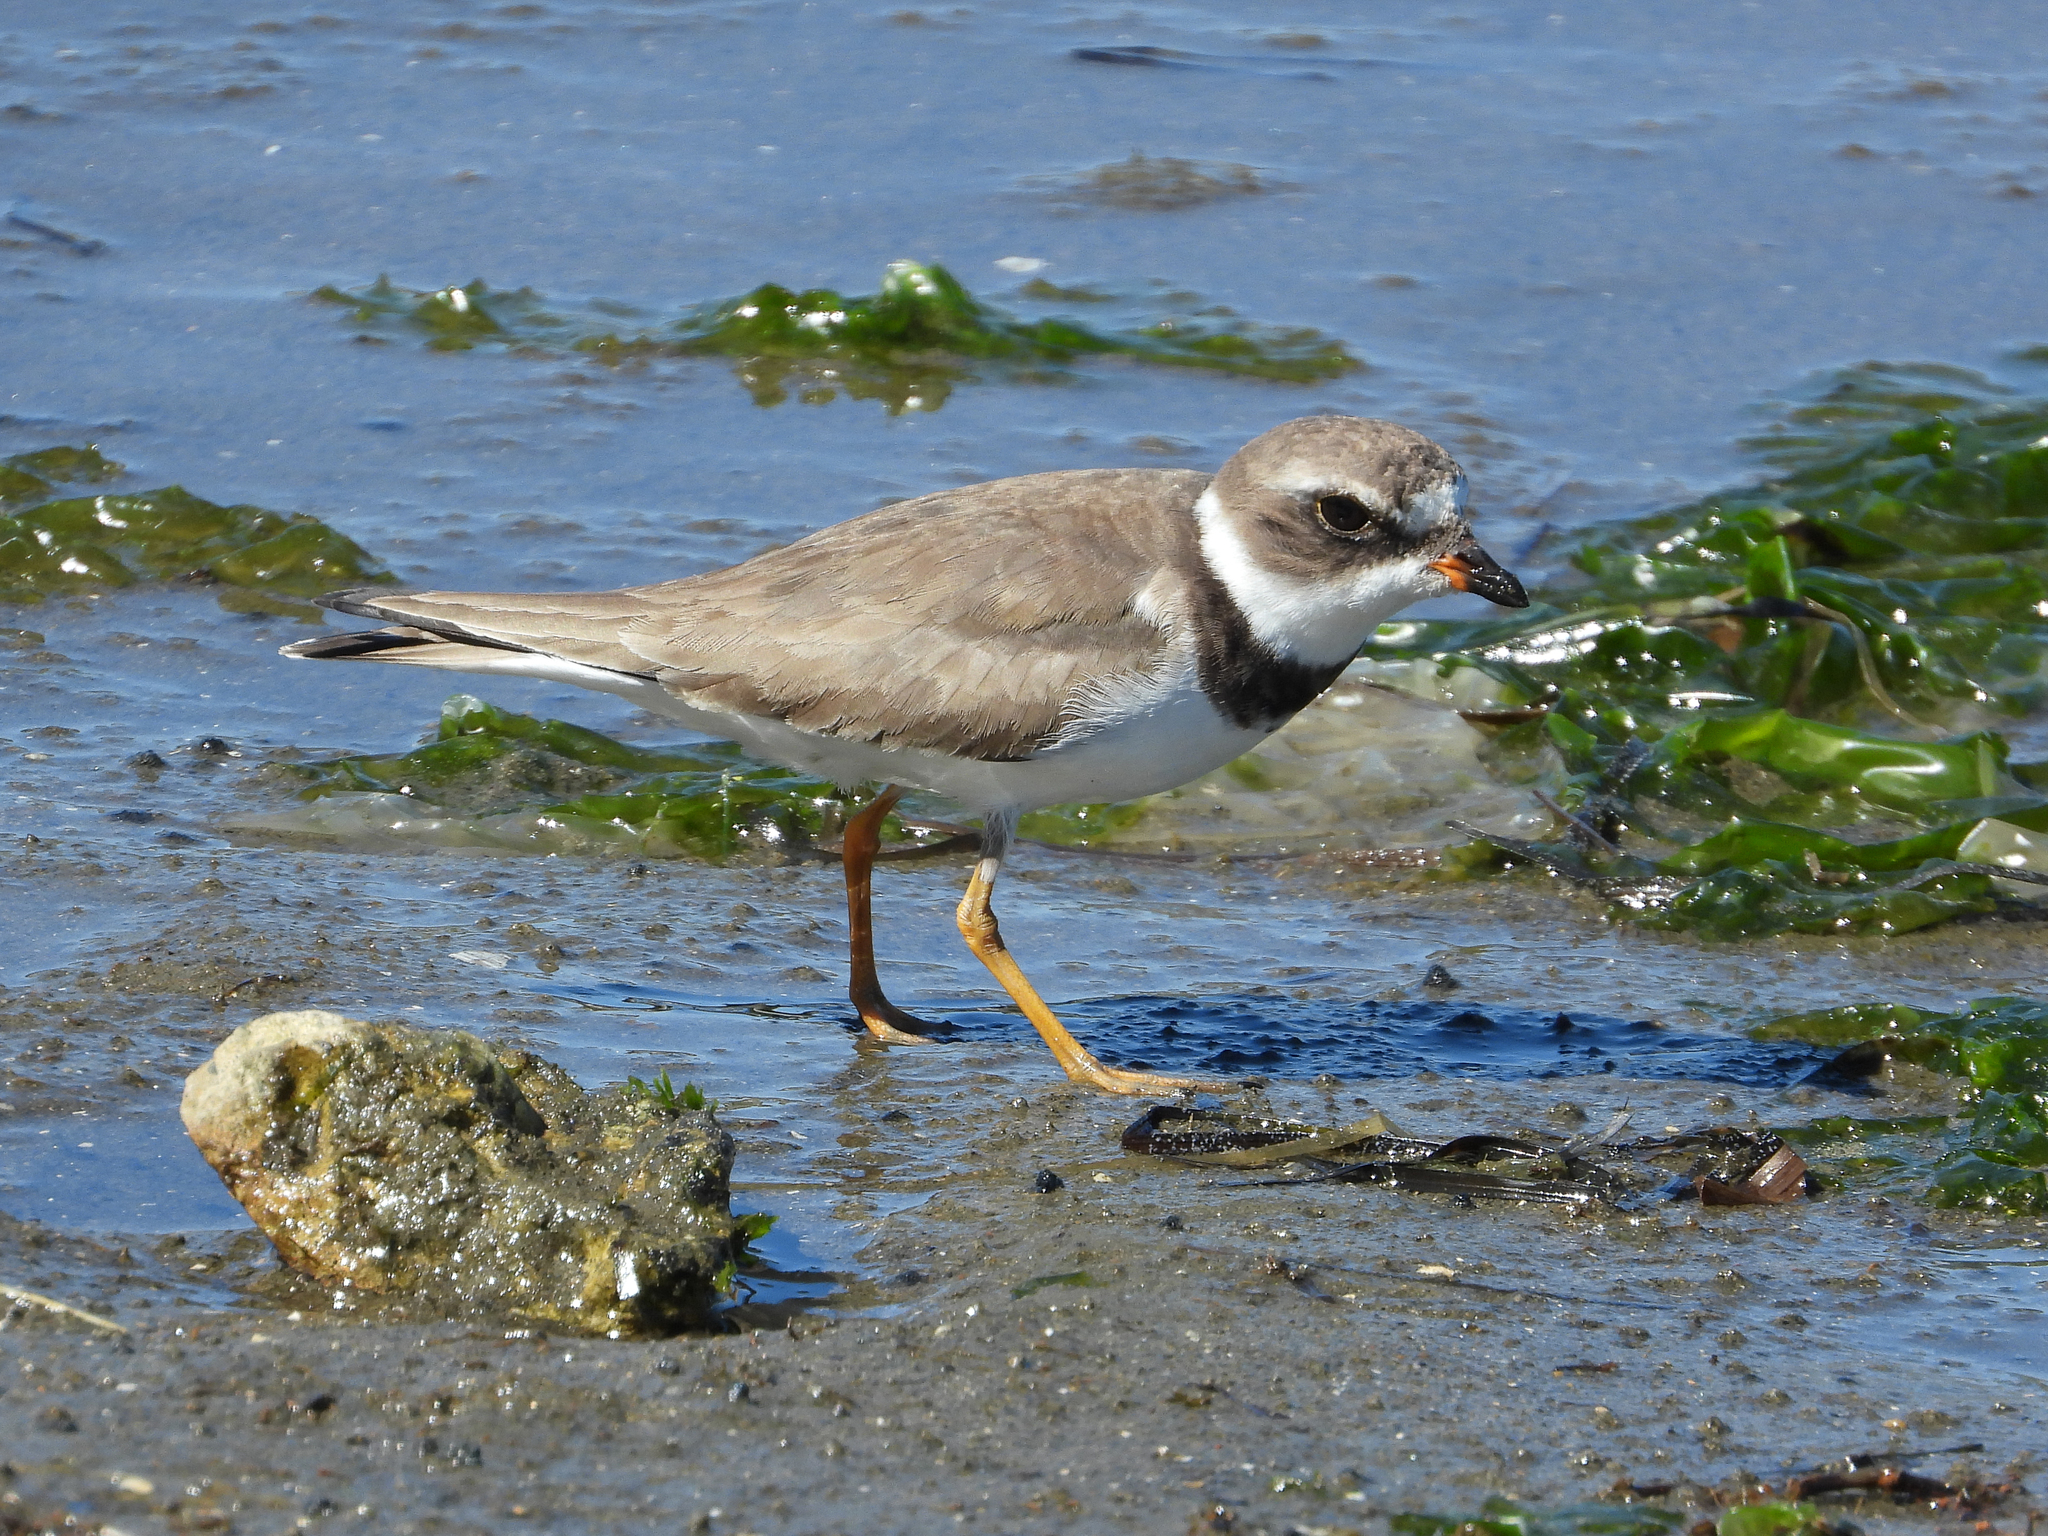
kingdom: Animalia
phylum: Chordata
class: Aves
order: Charadriiformes
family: Charadriidae
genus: Charadrius
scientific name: Charadrius semipalmatus
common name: Semipalmated plover
